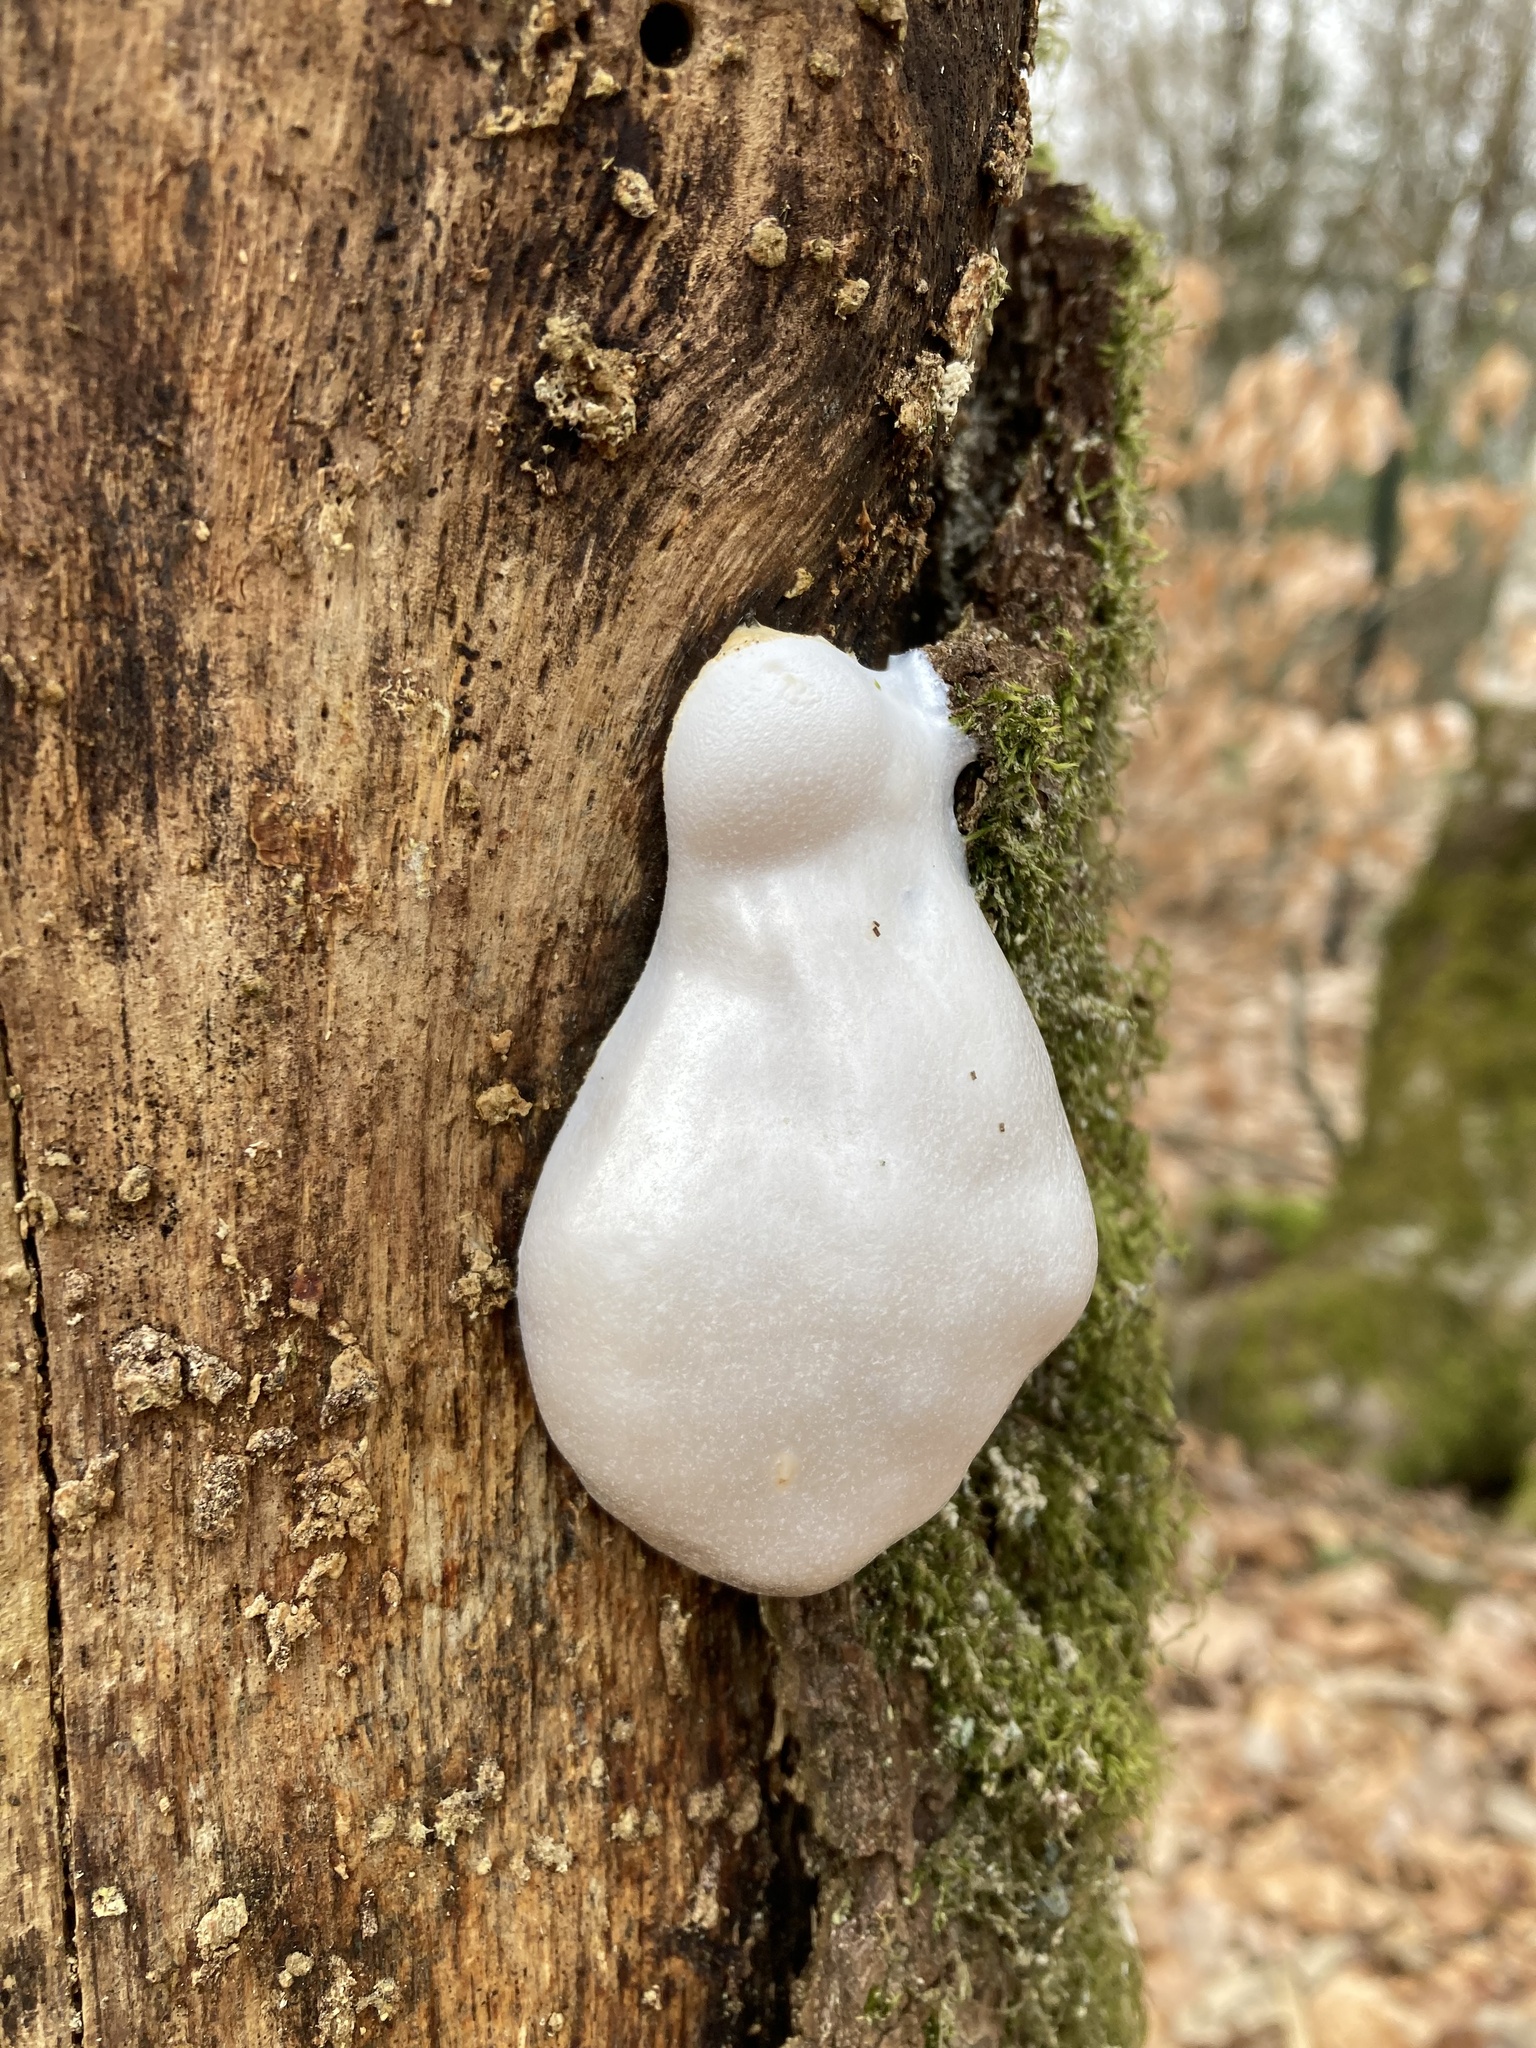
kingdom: Protozoa
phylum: Mycetozoa
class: Myxomycetes
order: Cribrariales
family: Tubiferaceae
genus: Reticularia
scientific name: Reticularia lycoperdon
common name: False puffball
